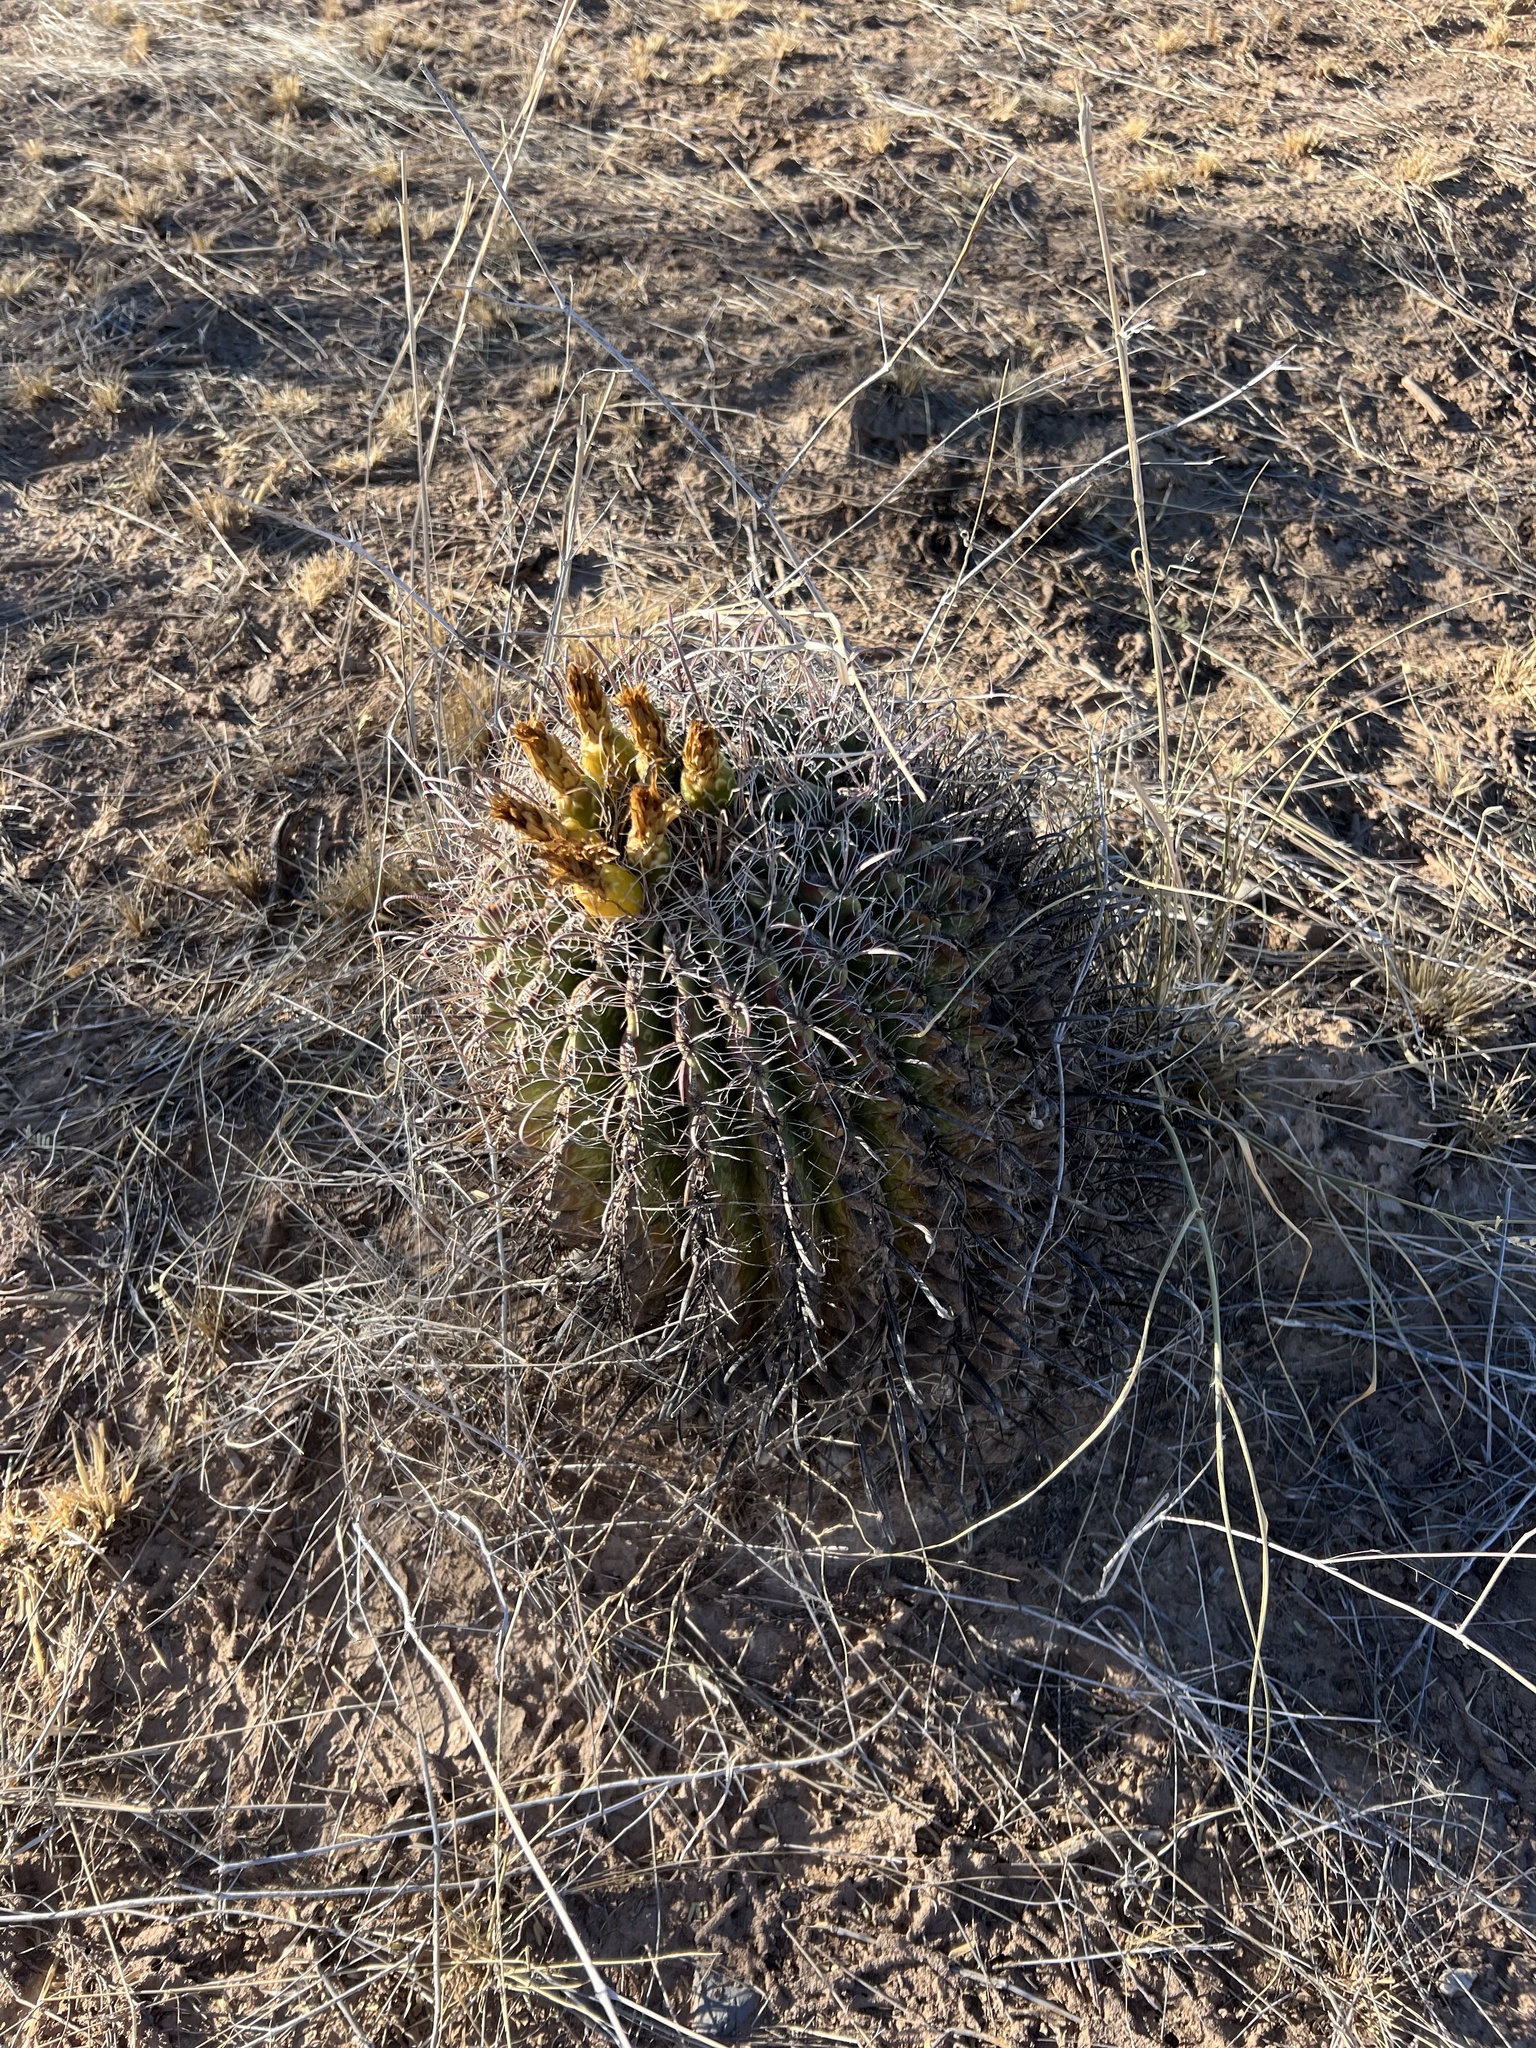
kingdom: Plantae
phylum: Tracheophyta
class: Magnoliopsida
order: Caryophyllales
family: Cactaceae
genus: Ferocactus
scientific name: Ferocactus wislizeni
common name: Candy barrel cactus
